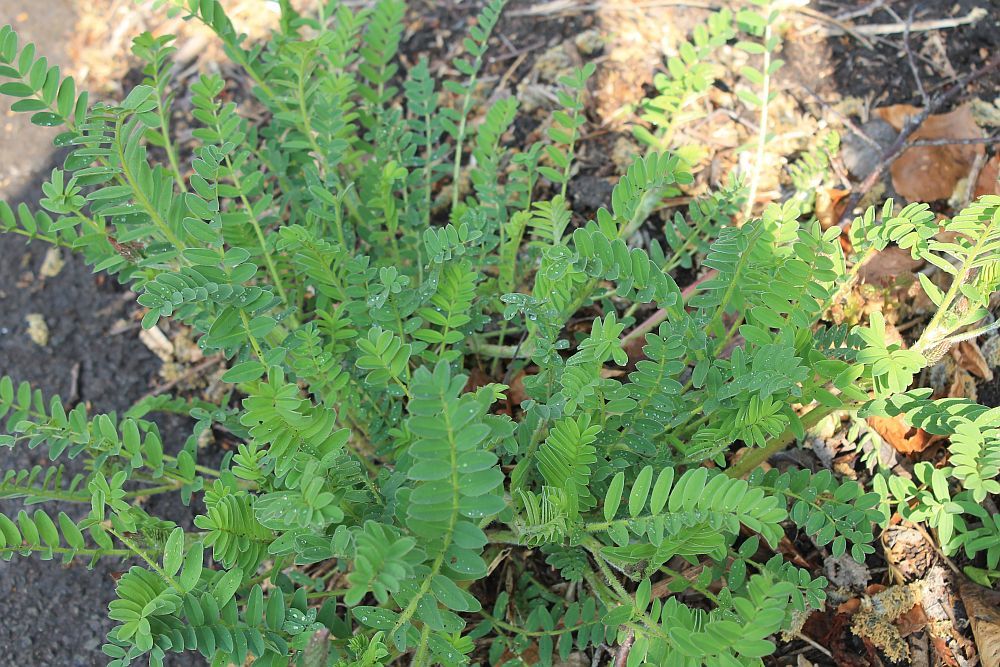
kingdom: Plantae
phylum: Tracheophyta
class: Magnoliopsida
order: Fabales
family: Fabaceae
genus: Onobrychis
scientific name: Onobrychis viciifolia
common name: Sainfoin
